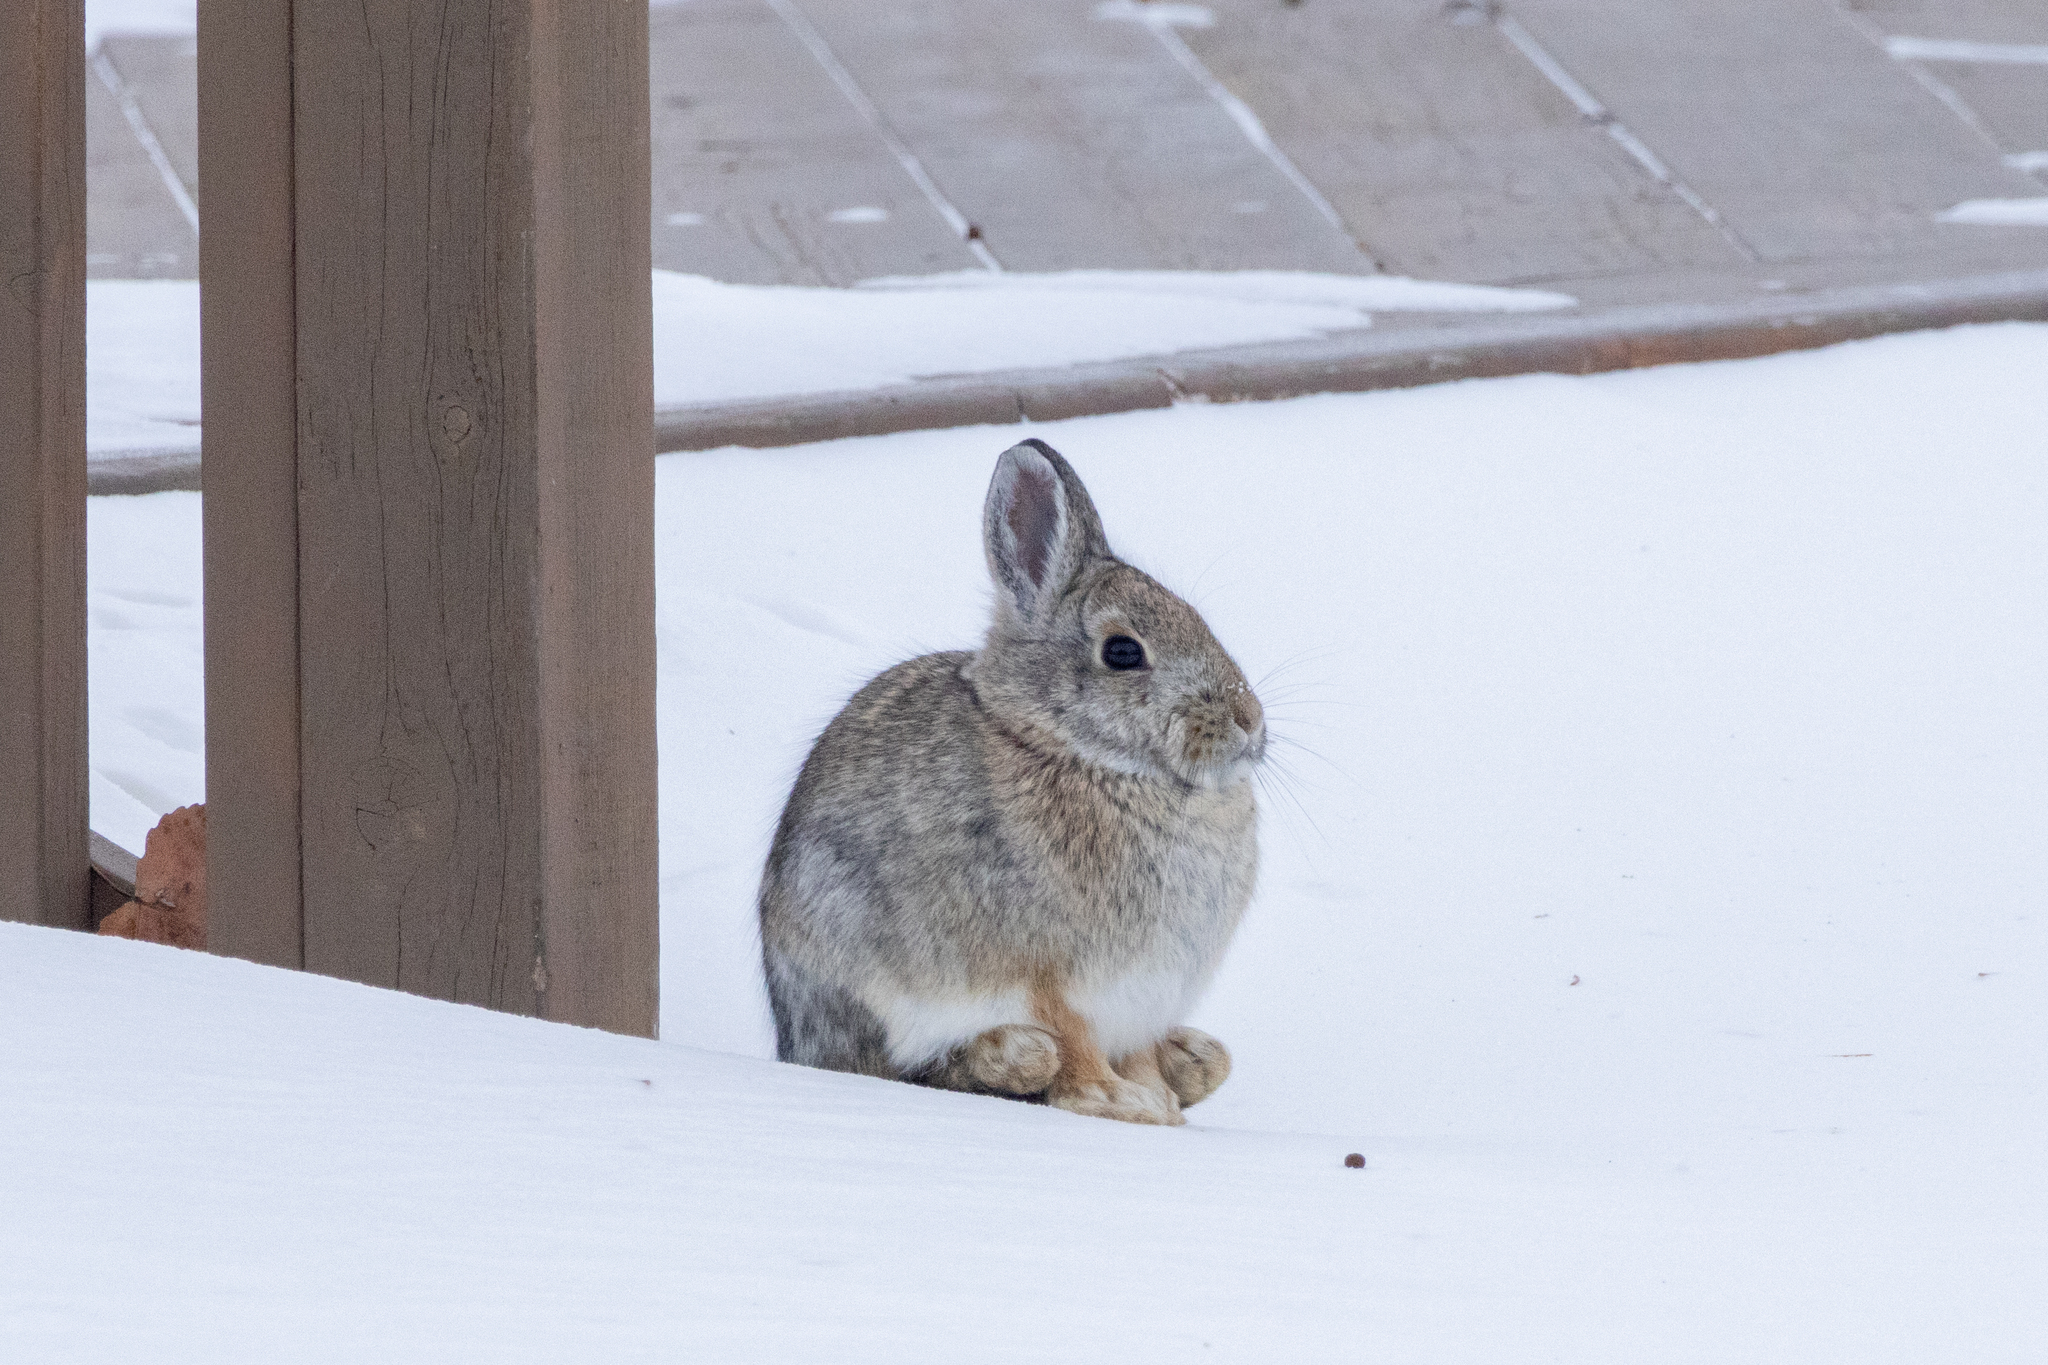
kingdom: Animalia
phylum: Chordata
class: Mammalia
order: Lagomorpha
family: Leporidae
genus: Sylvilagus
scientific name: Sylvilagus nuttallii
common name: Mountain cottontail
